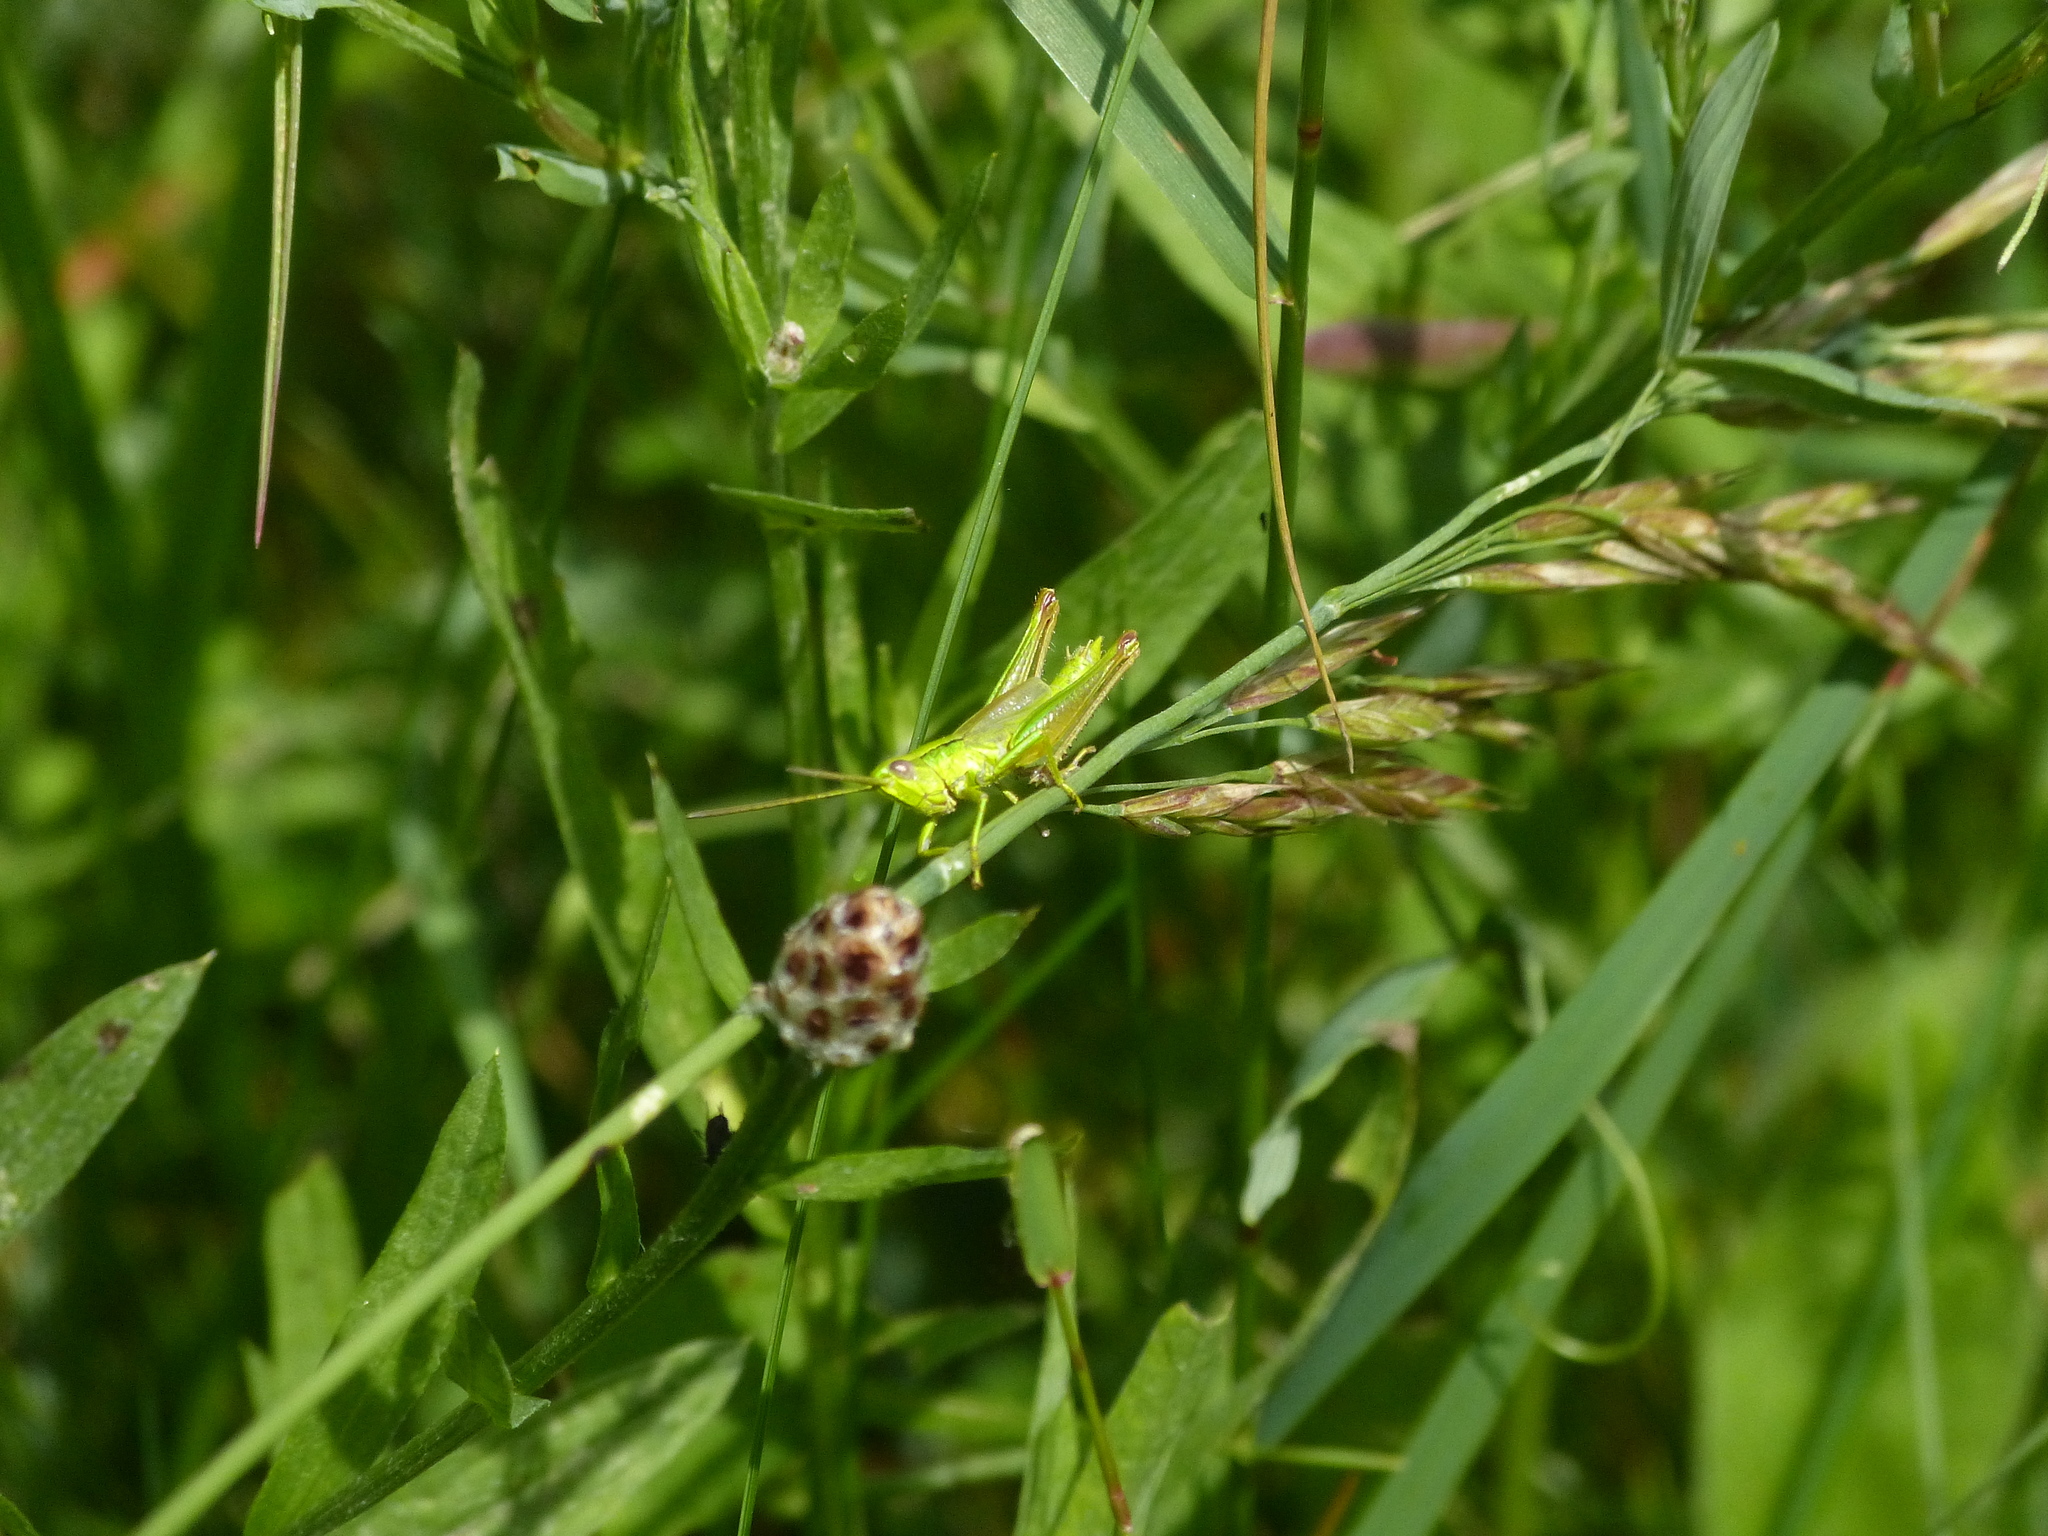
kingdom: Animalia
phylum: Arthropoda
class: Insecta
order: Orthoptera
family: Acrididae
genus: Euthystira
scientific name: Euthystira brachyptera
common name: Small gold grasshopper
